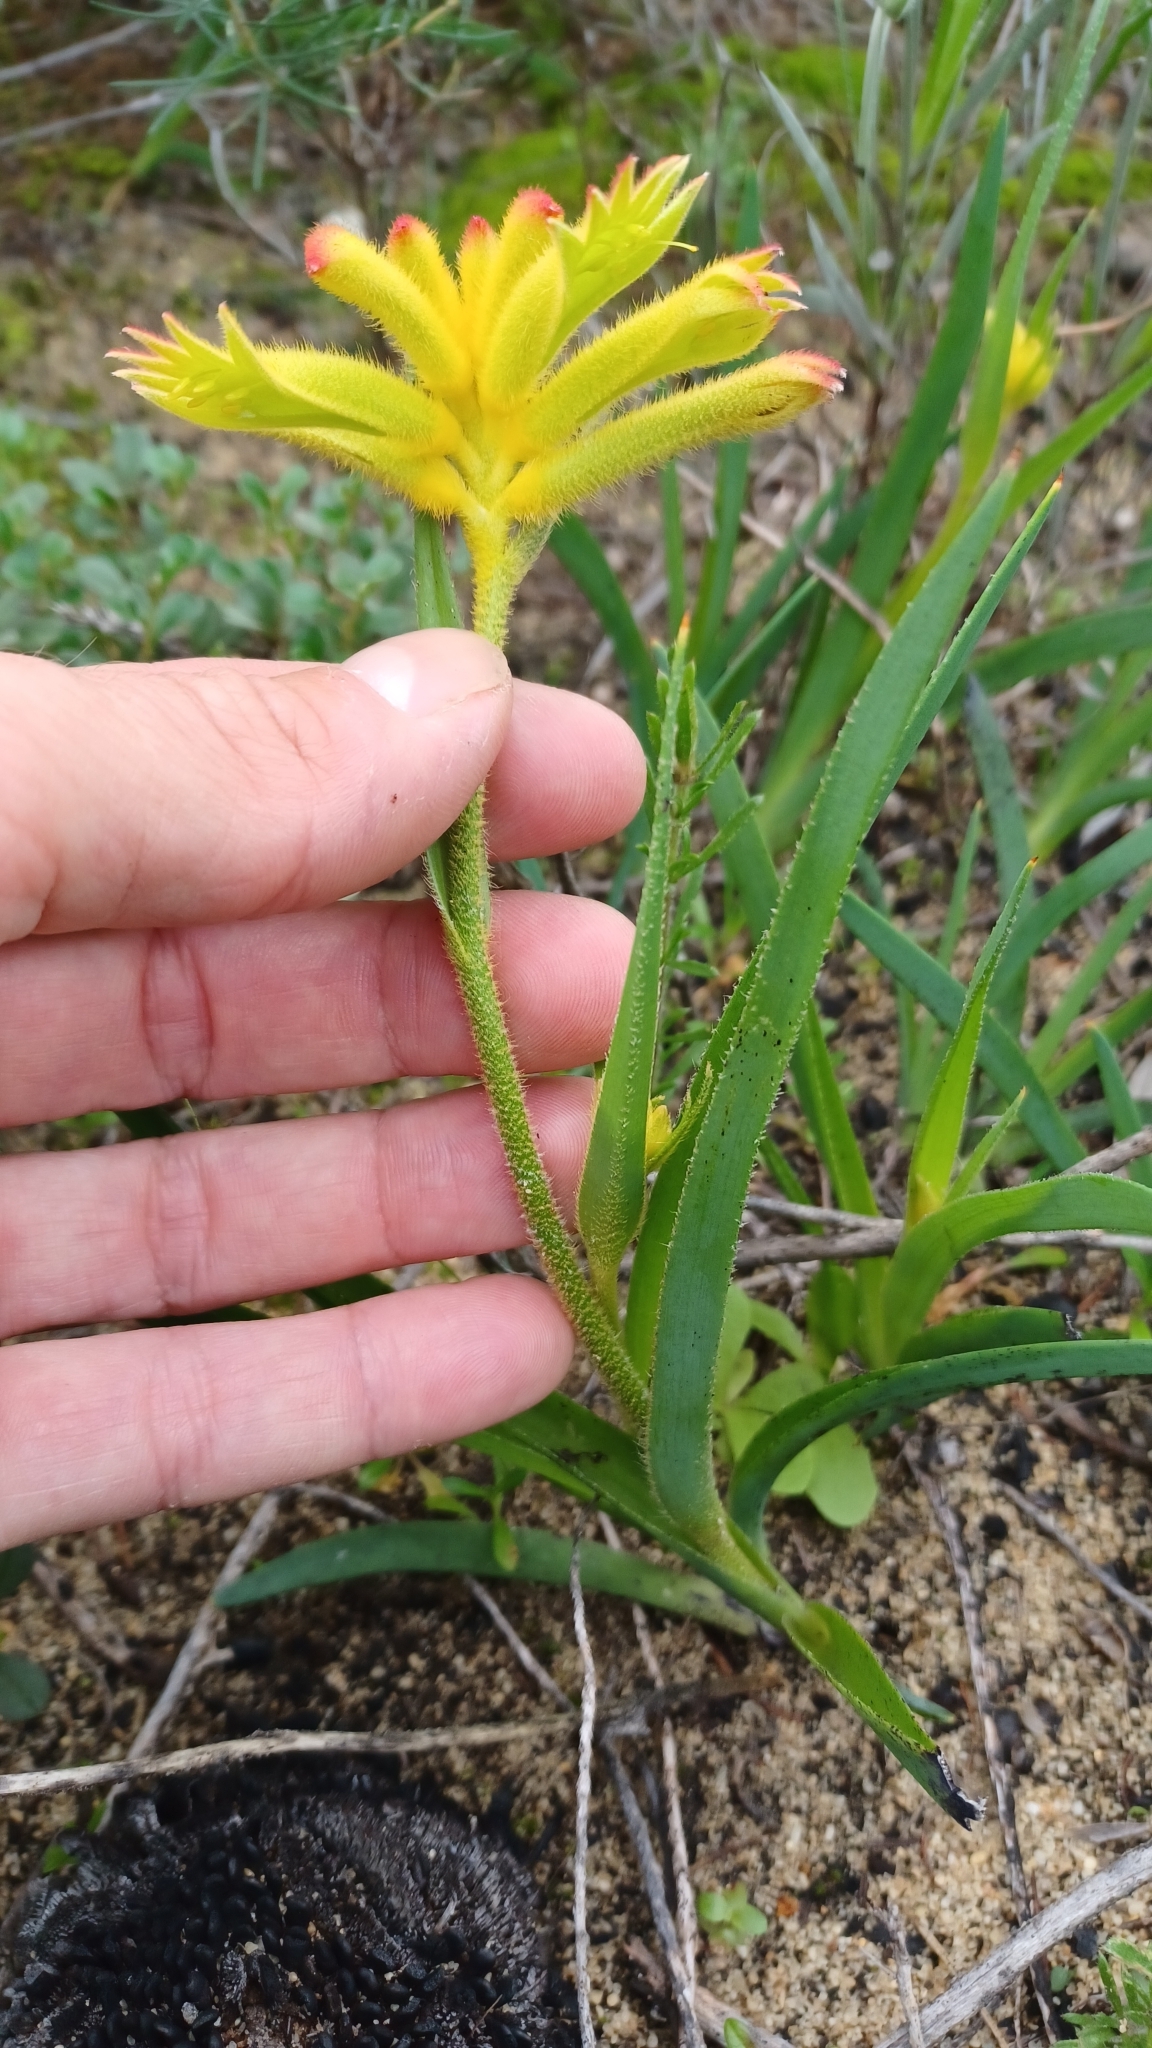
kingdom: Plantae
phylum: Tracheophyta
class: Liliopsida
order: Commelinales
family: Haemodoraceae
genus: Anigozanthos
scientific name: Anigozanthos humilis
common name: Cat's-paw
